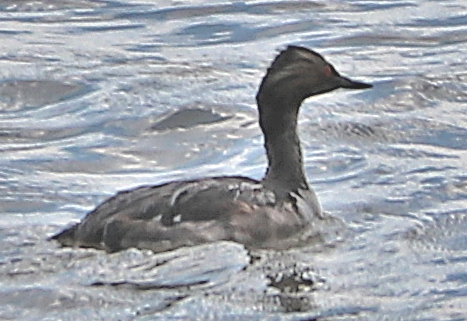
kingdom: Animalia
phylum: Chordata
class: Aves
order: Podicipediformes
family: Podicipedidae
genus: Podiceps
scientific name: Podiceps nigricollis
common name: Black-necked grebe
